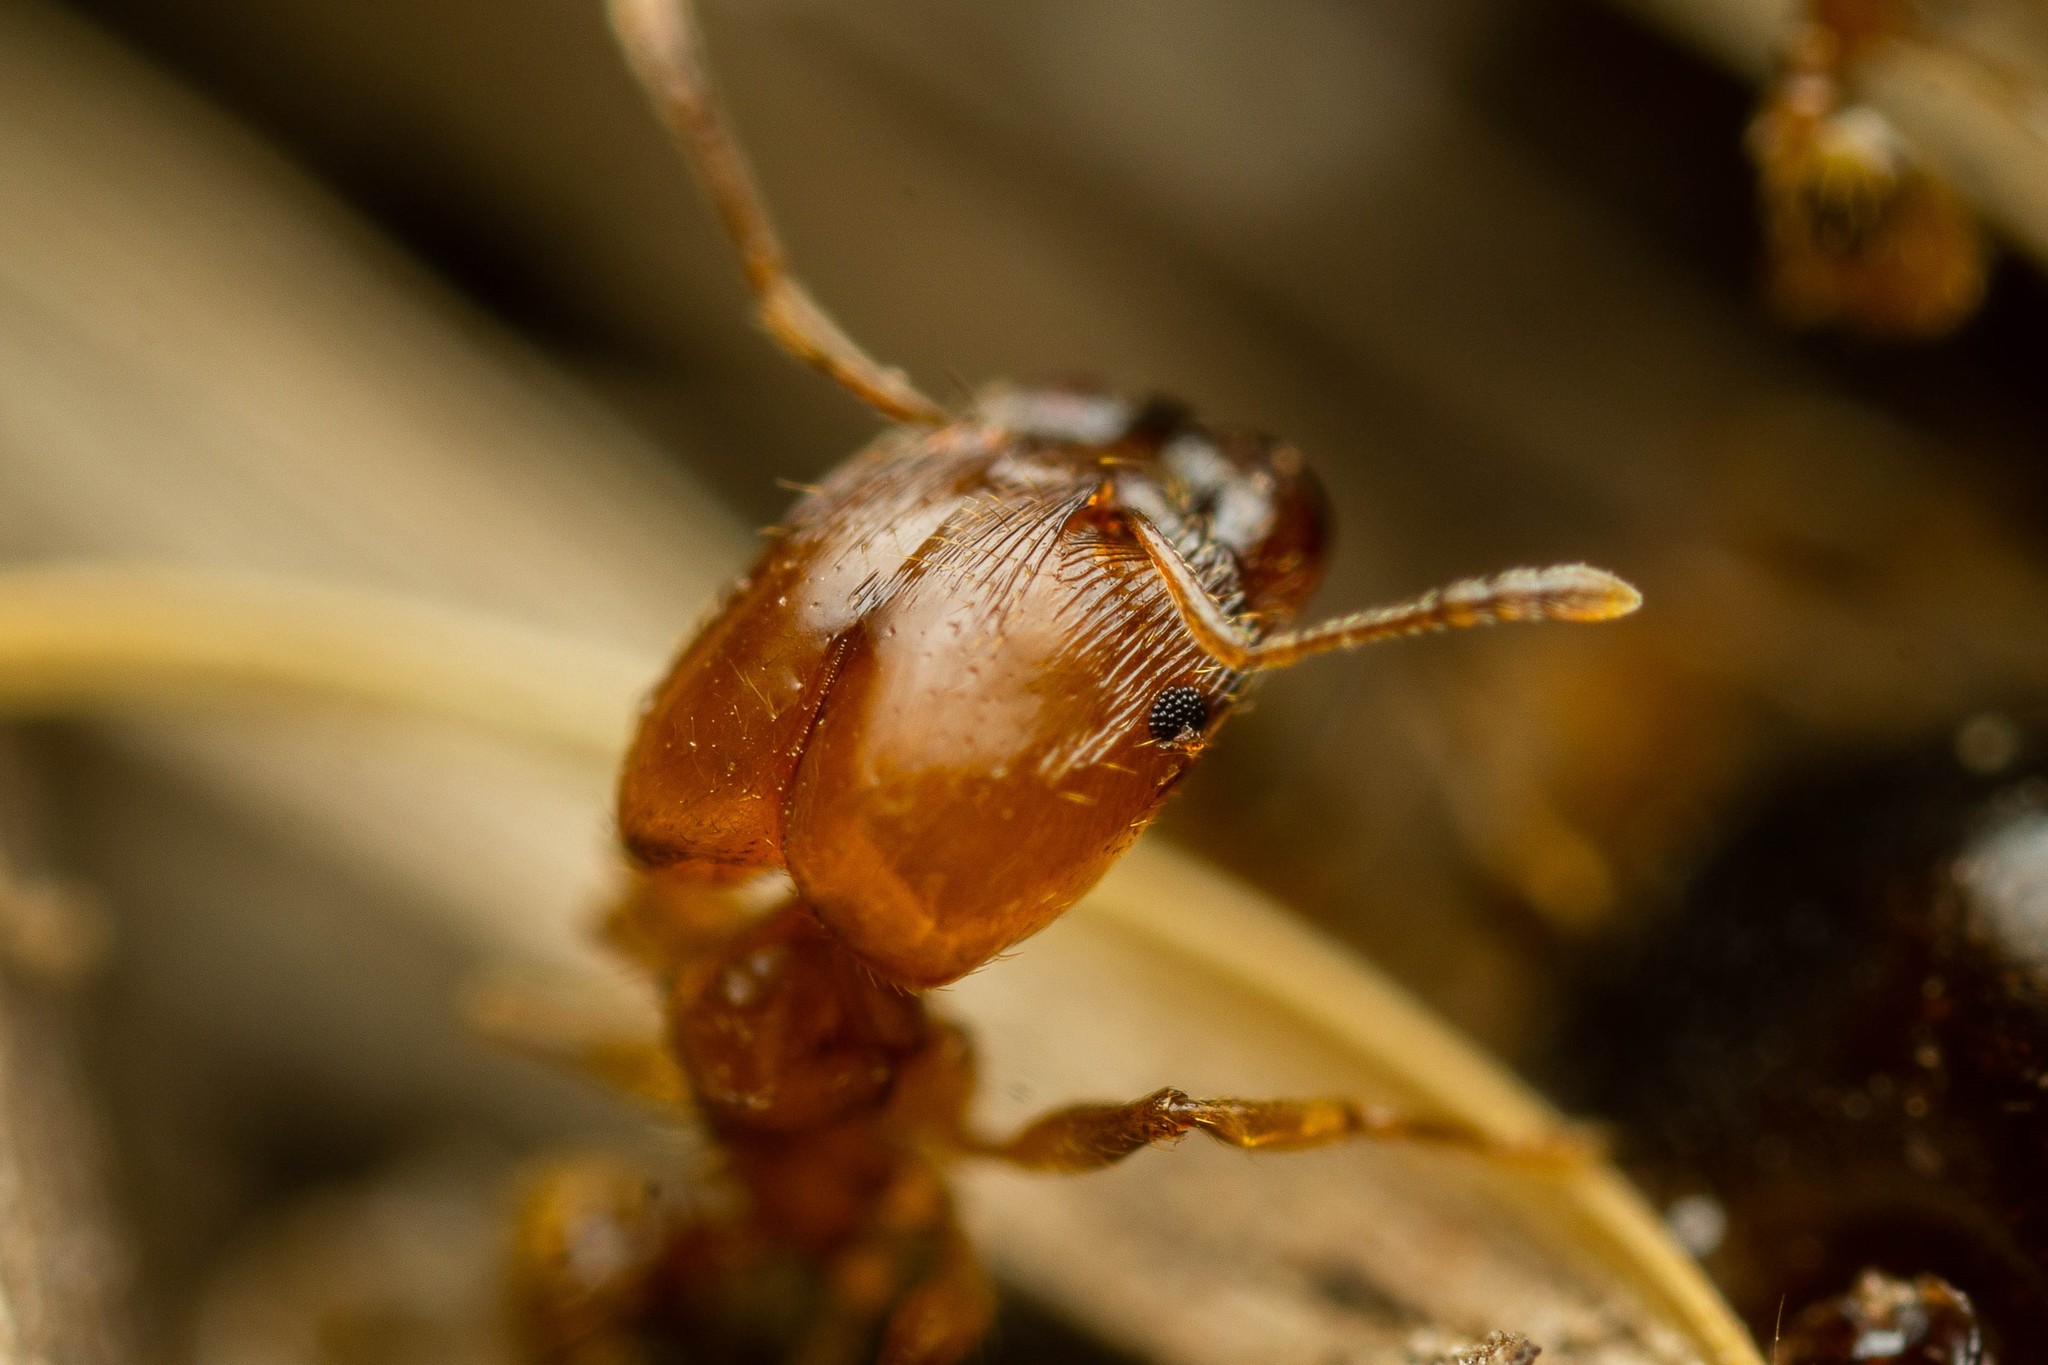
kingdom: Animalia
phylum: Arthropoda
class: Insecta
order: Hymenoptera
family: Formicidae
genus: Pheidole
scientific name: Pheidole cerebrosior
